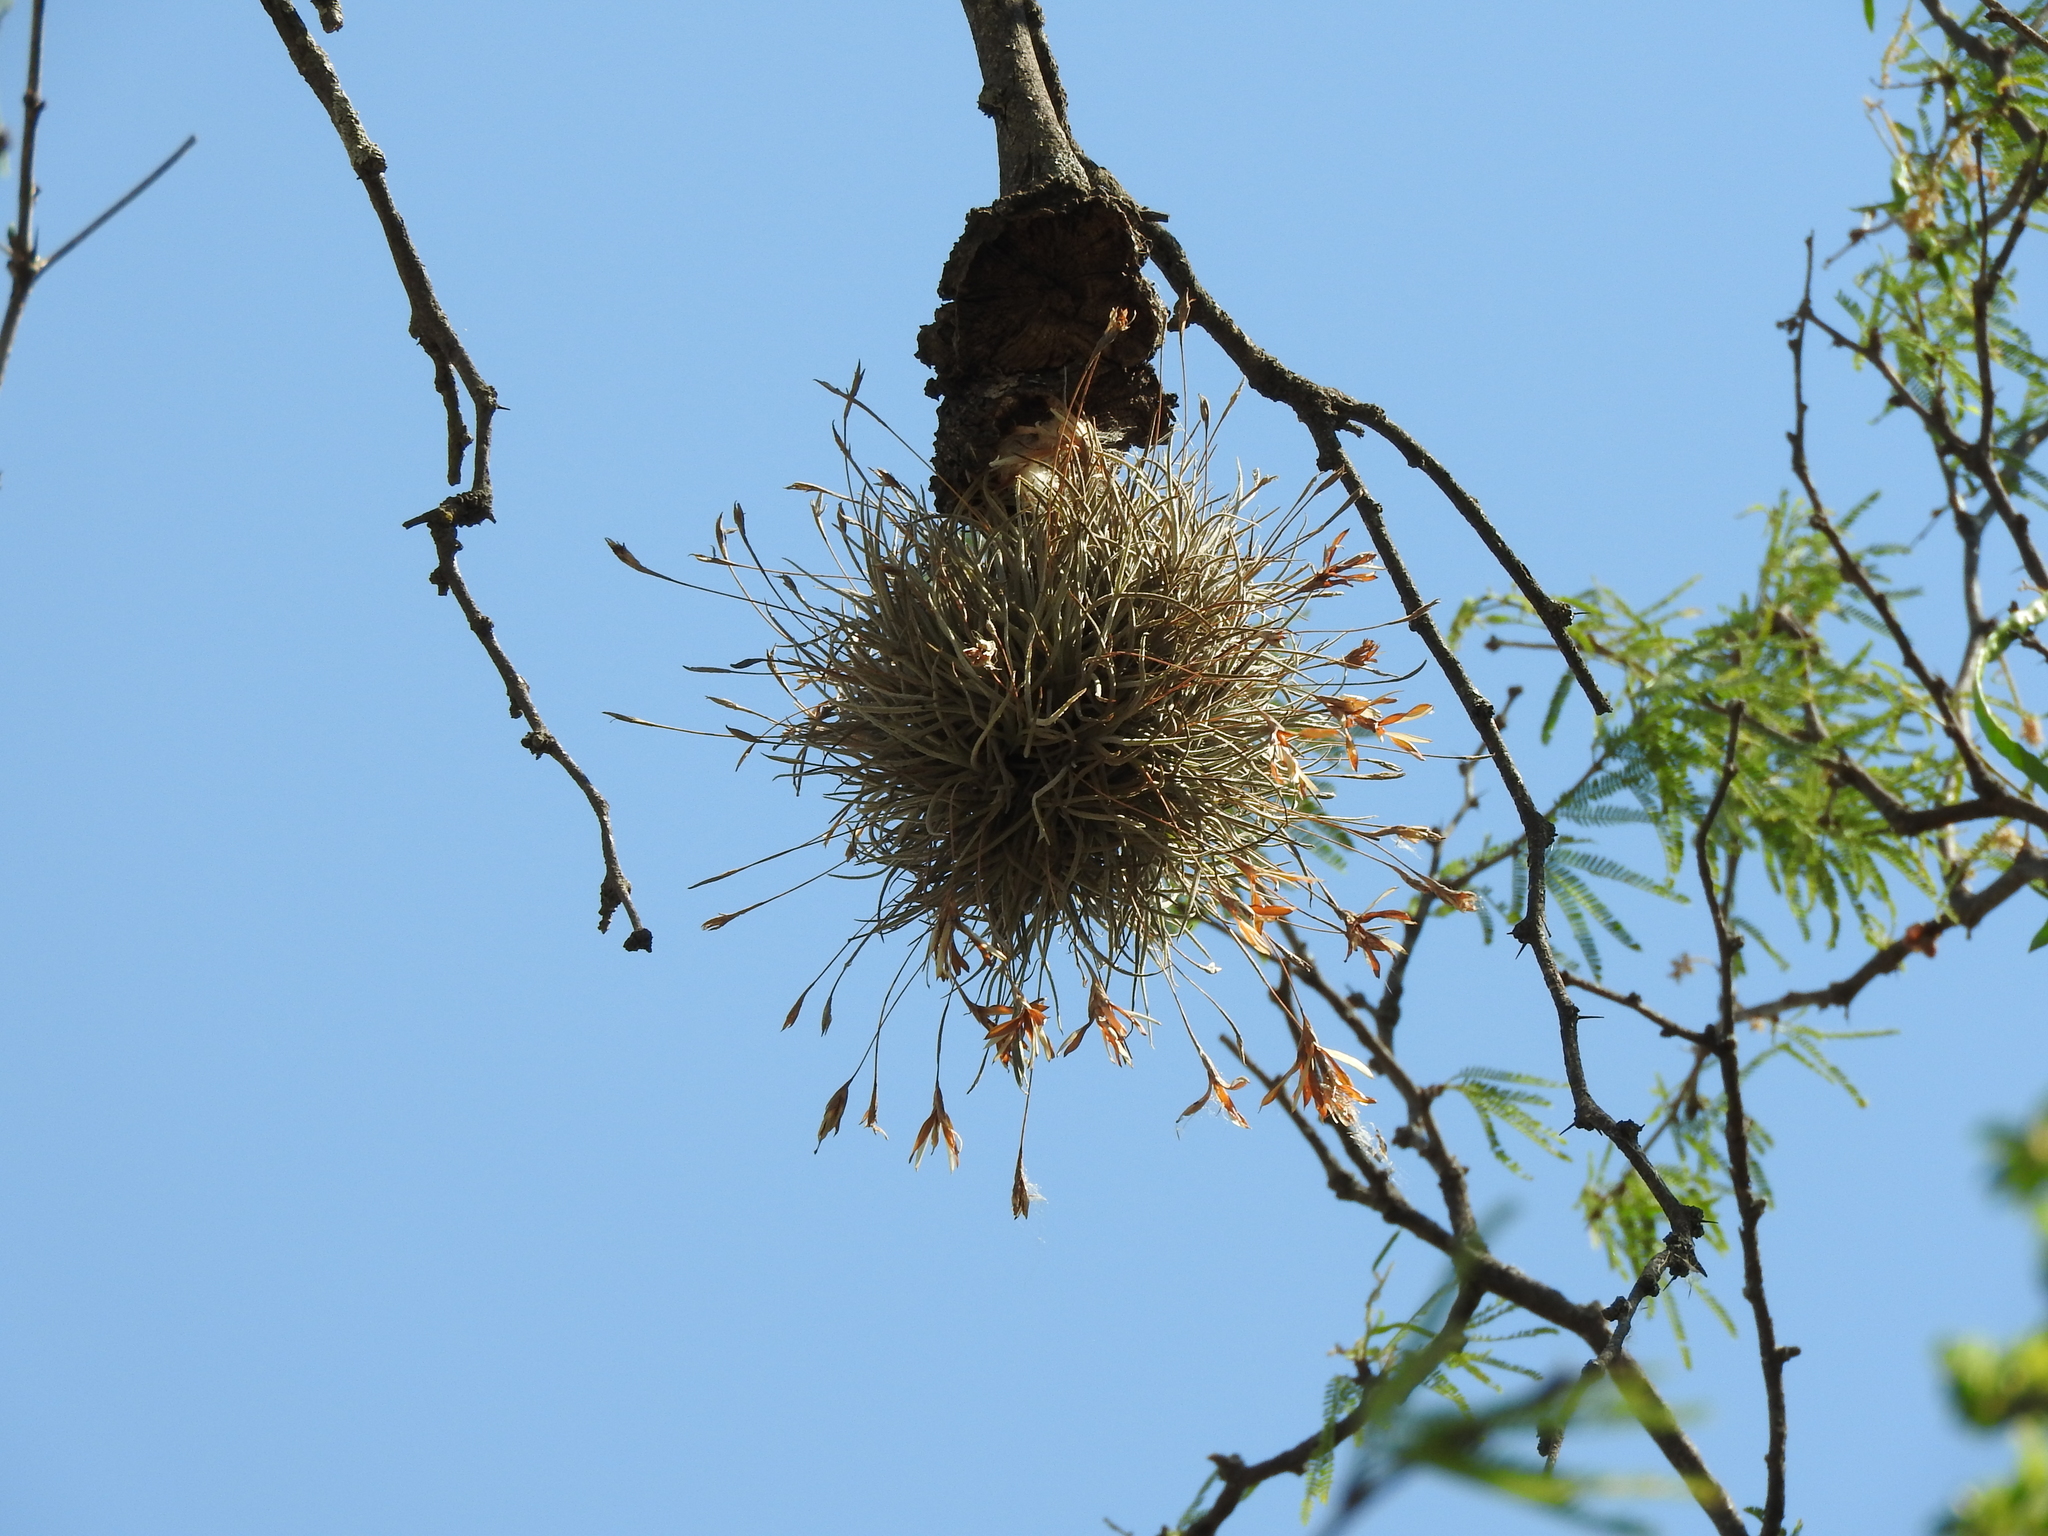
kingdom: Plantae
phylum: Tracheophyta
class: Liliopsida
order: Poales
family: Bromeliaceae
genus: Tillandsia
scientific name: Tillandsia recurvata
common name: Small ballmoss
